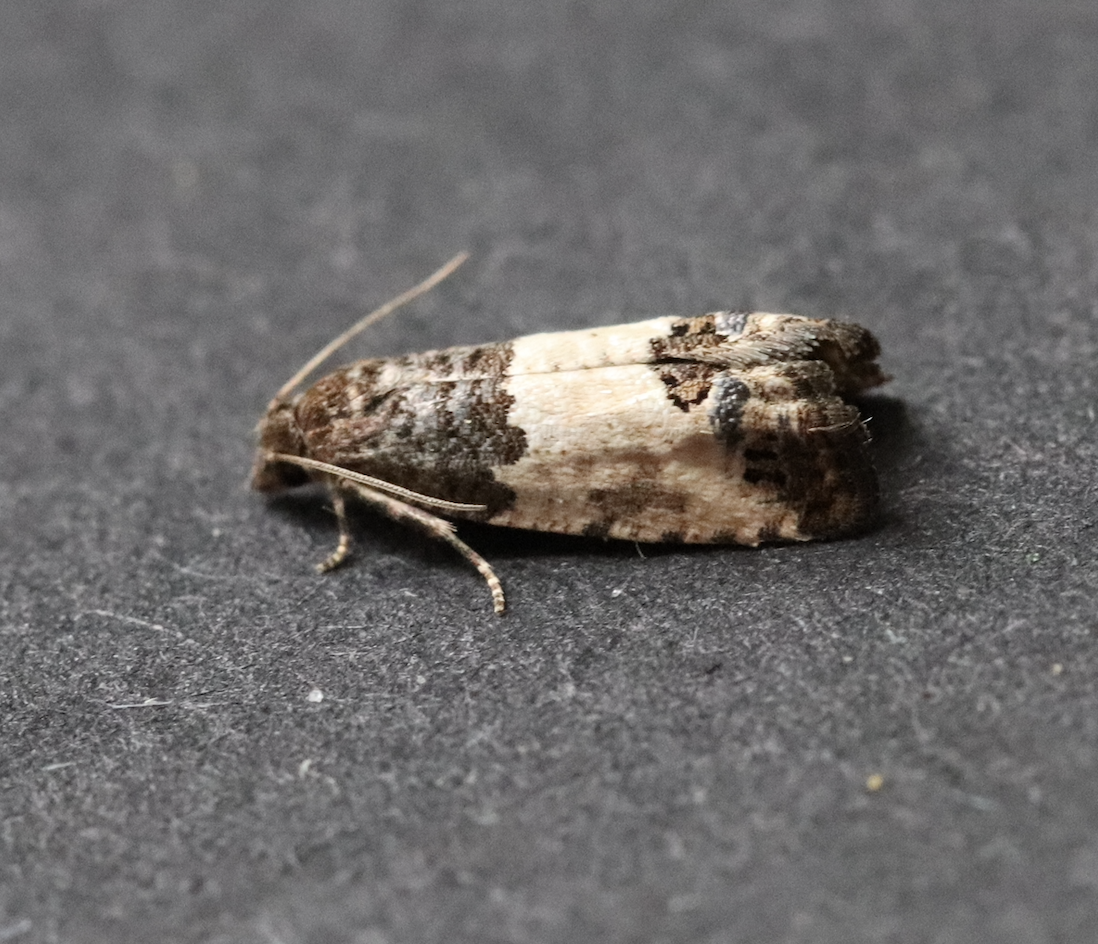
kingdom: Animalia
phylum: Arthropoda
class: Insecta
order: Lepidoptera
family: Tortricidae
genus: Spilonota
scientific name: Spilonota ocellana
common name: Bud moth
